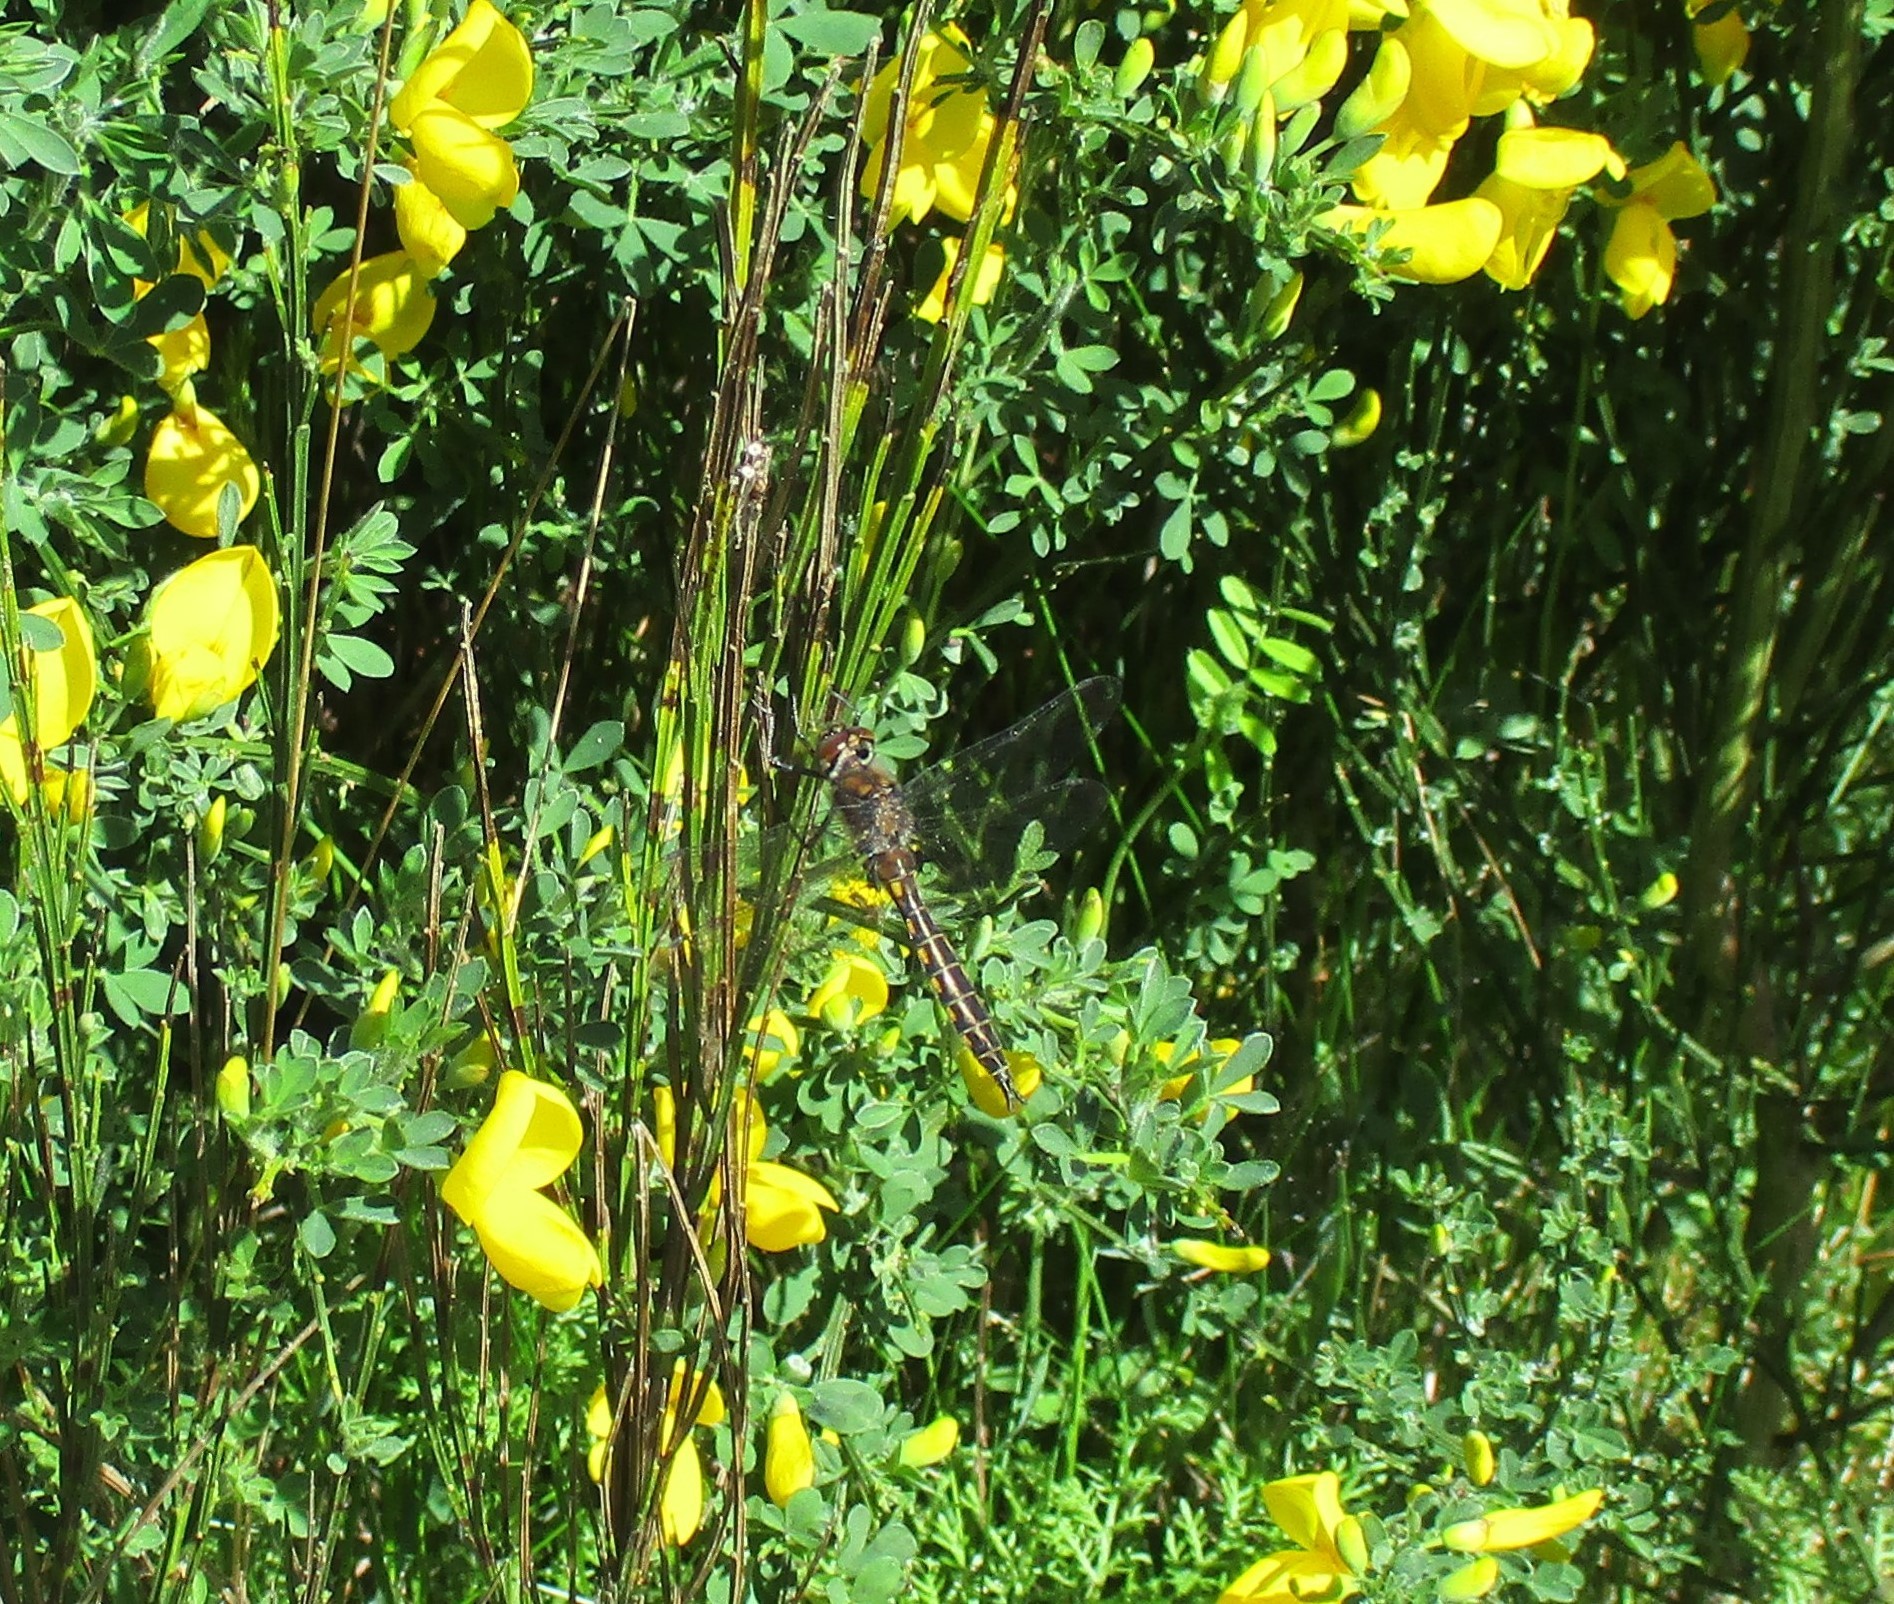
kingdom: Animalia
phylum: Arthropoda
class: Insecta
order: Odonata
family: Corduliidae
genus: Epitheca
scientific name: Epitheca spinigera
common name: Spiny baskettail
